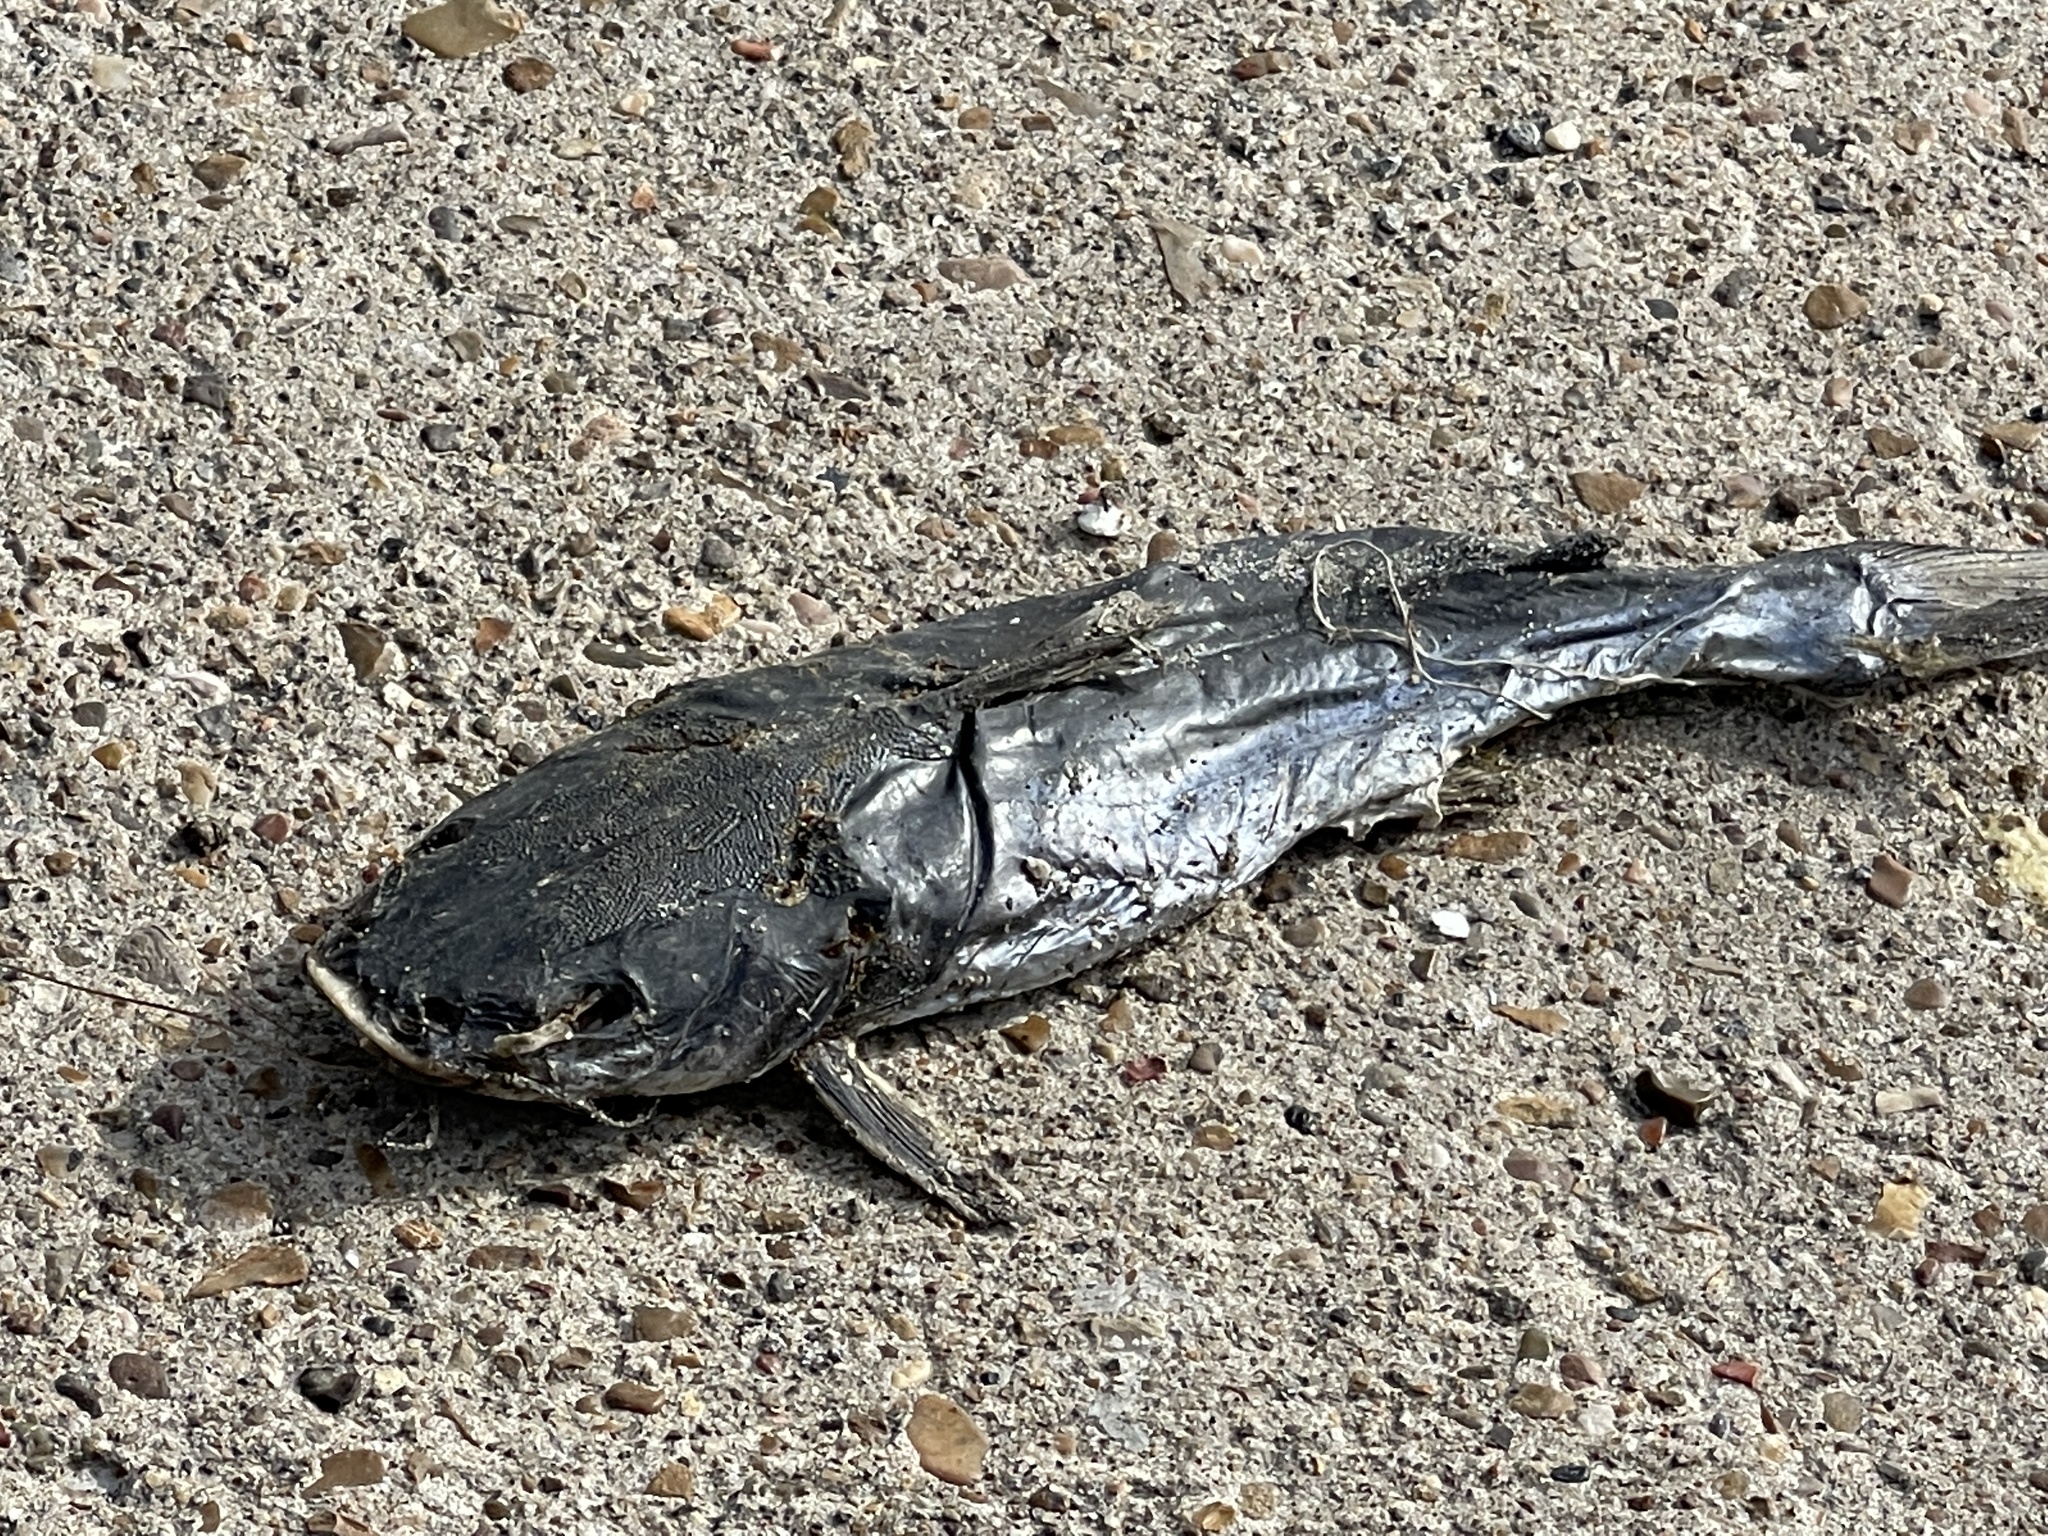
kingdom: Animalia
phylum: Chordata
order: Siluriformes
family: Ariidae
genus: Ariopsis
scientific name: Ariopsis felis
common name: Hardhead catfish
